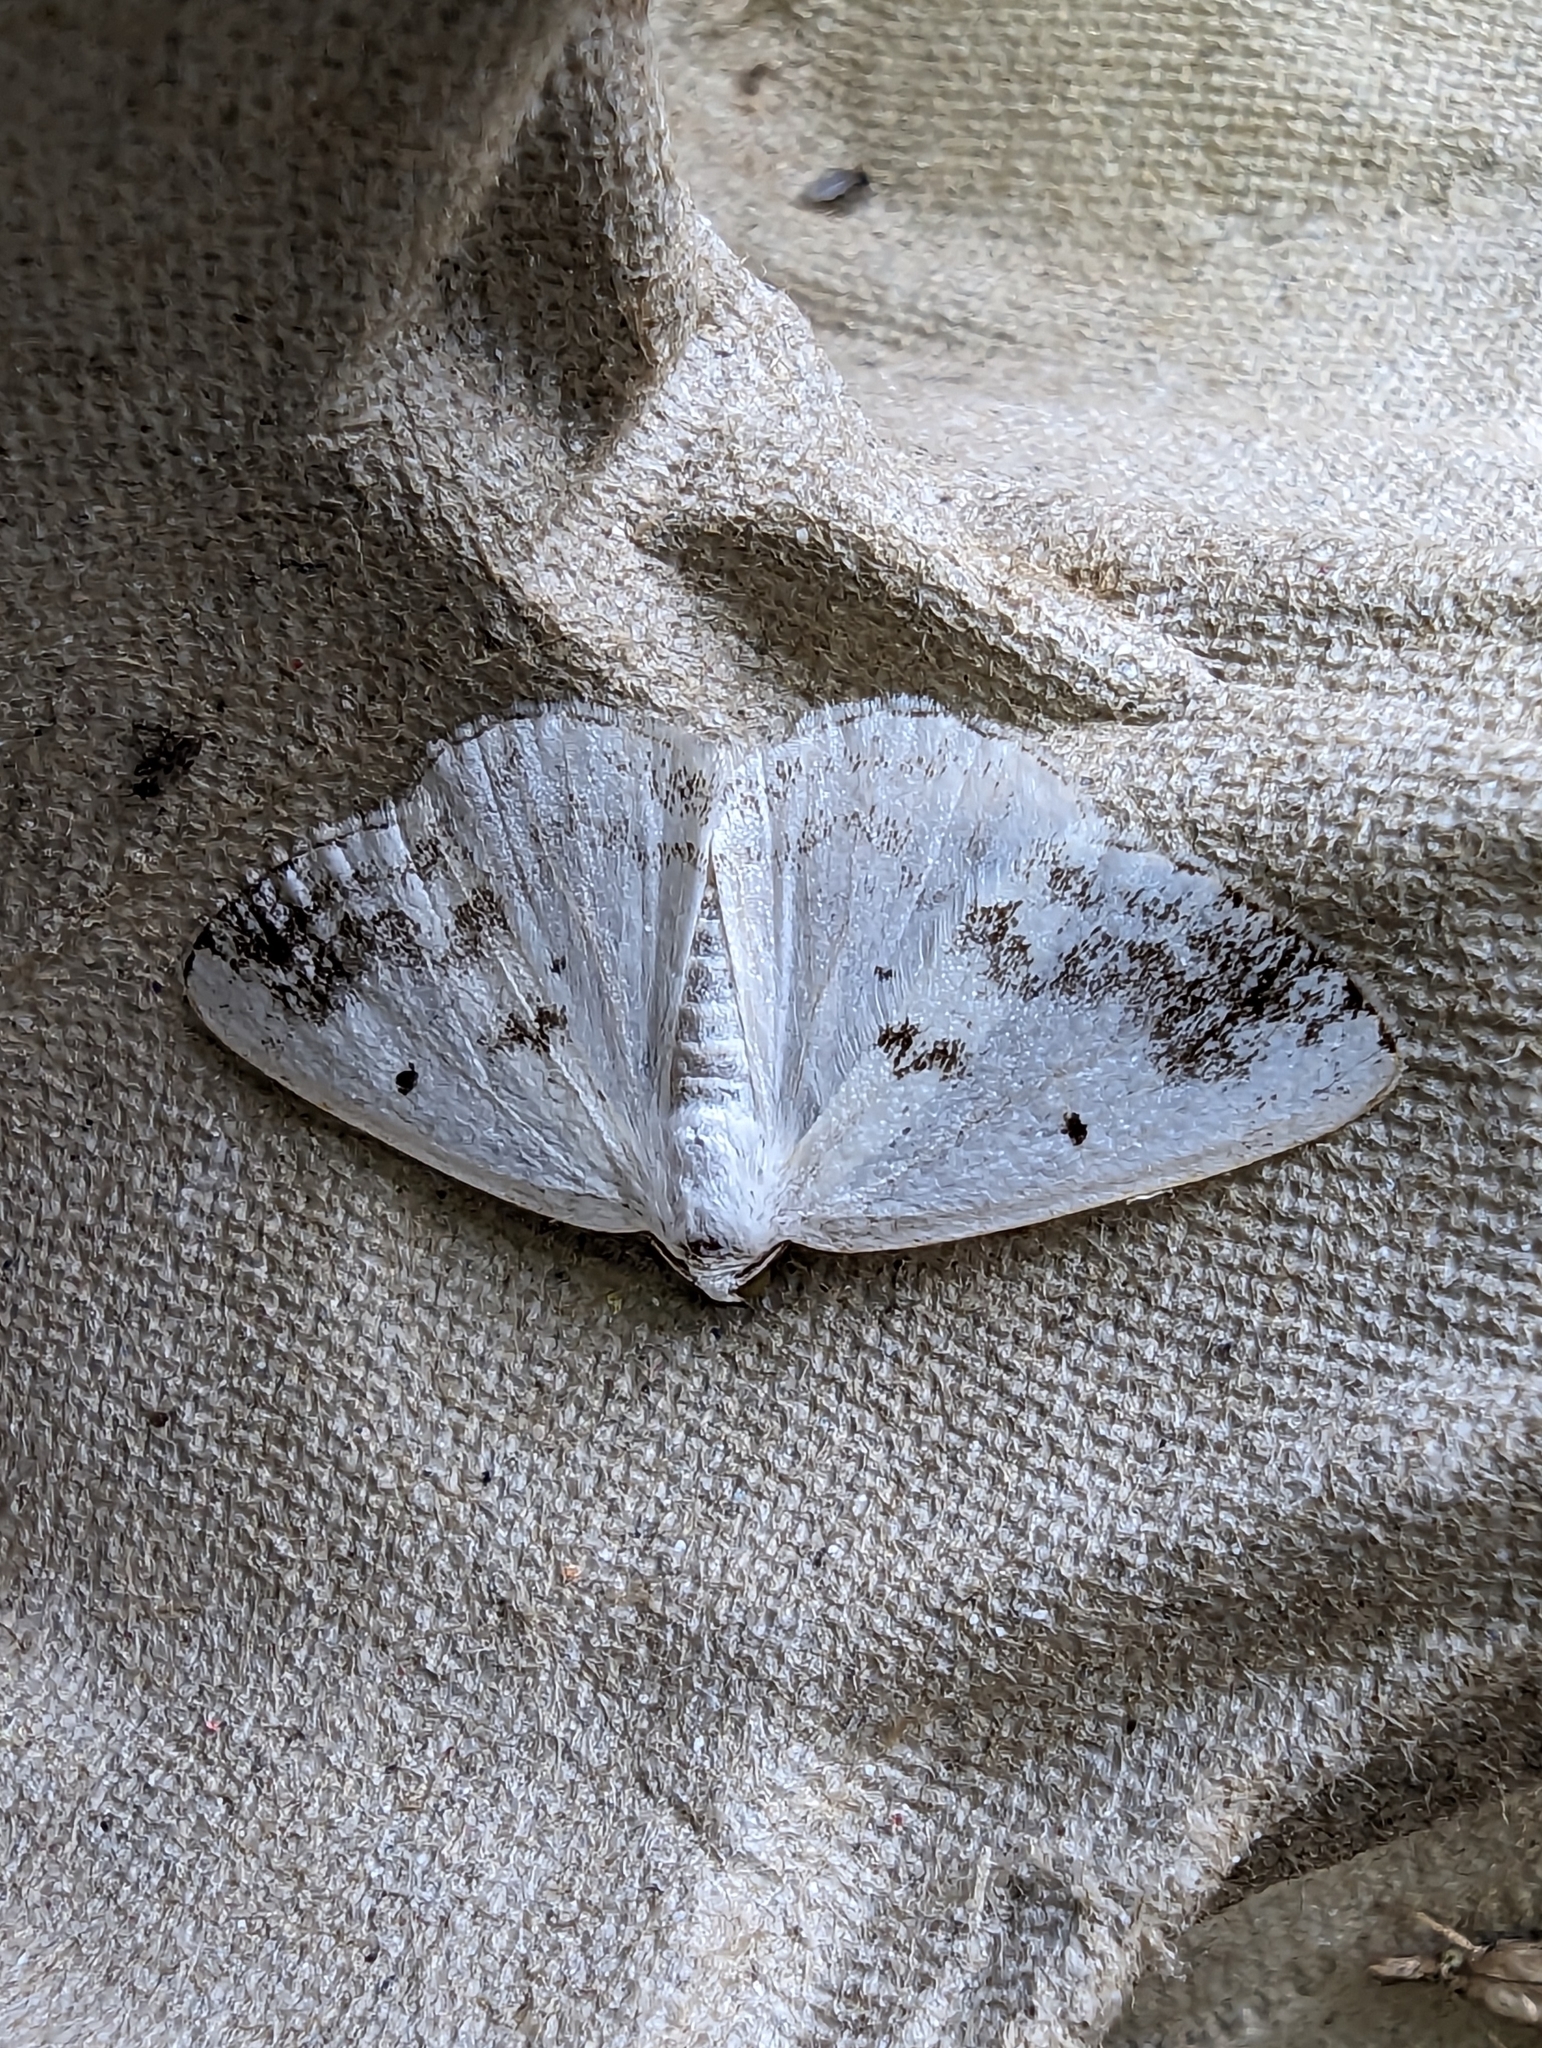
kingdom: Animalia
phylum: Arthropoda
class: Insecta
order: Lepidoptera
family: Geometridae
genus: Lomographa
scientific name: Lomographa temerata
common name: Clouded silver
